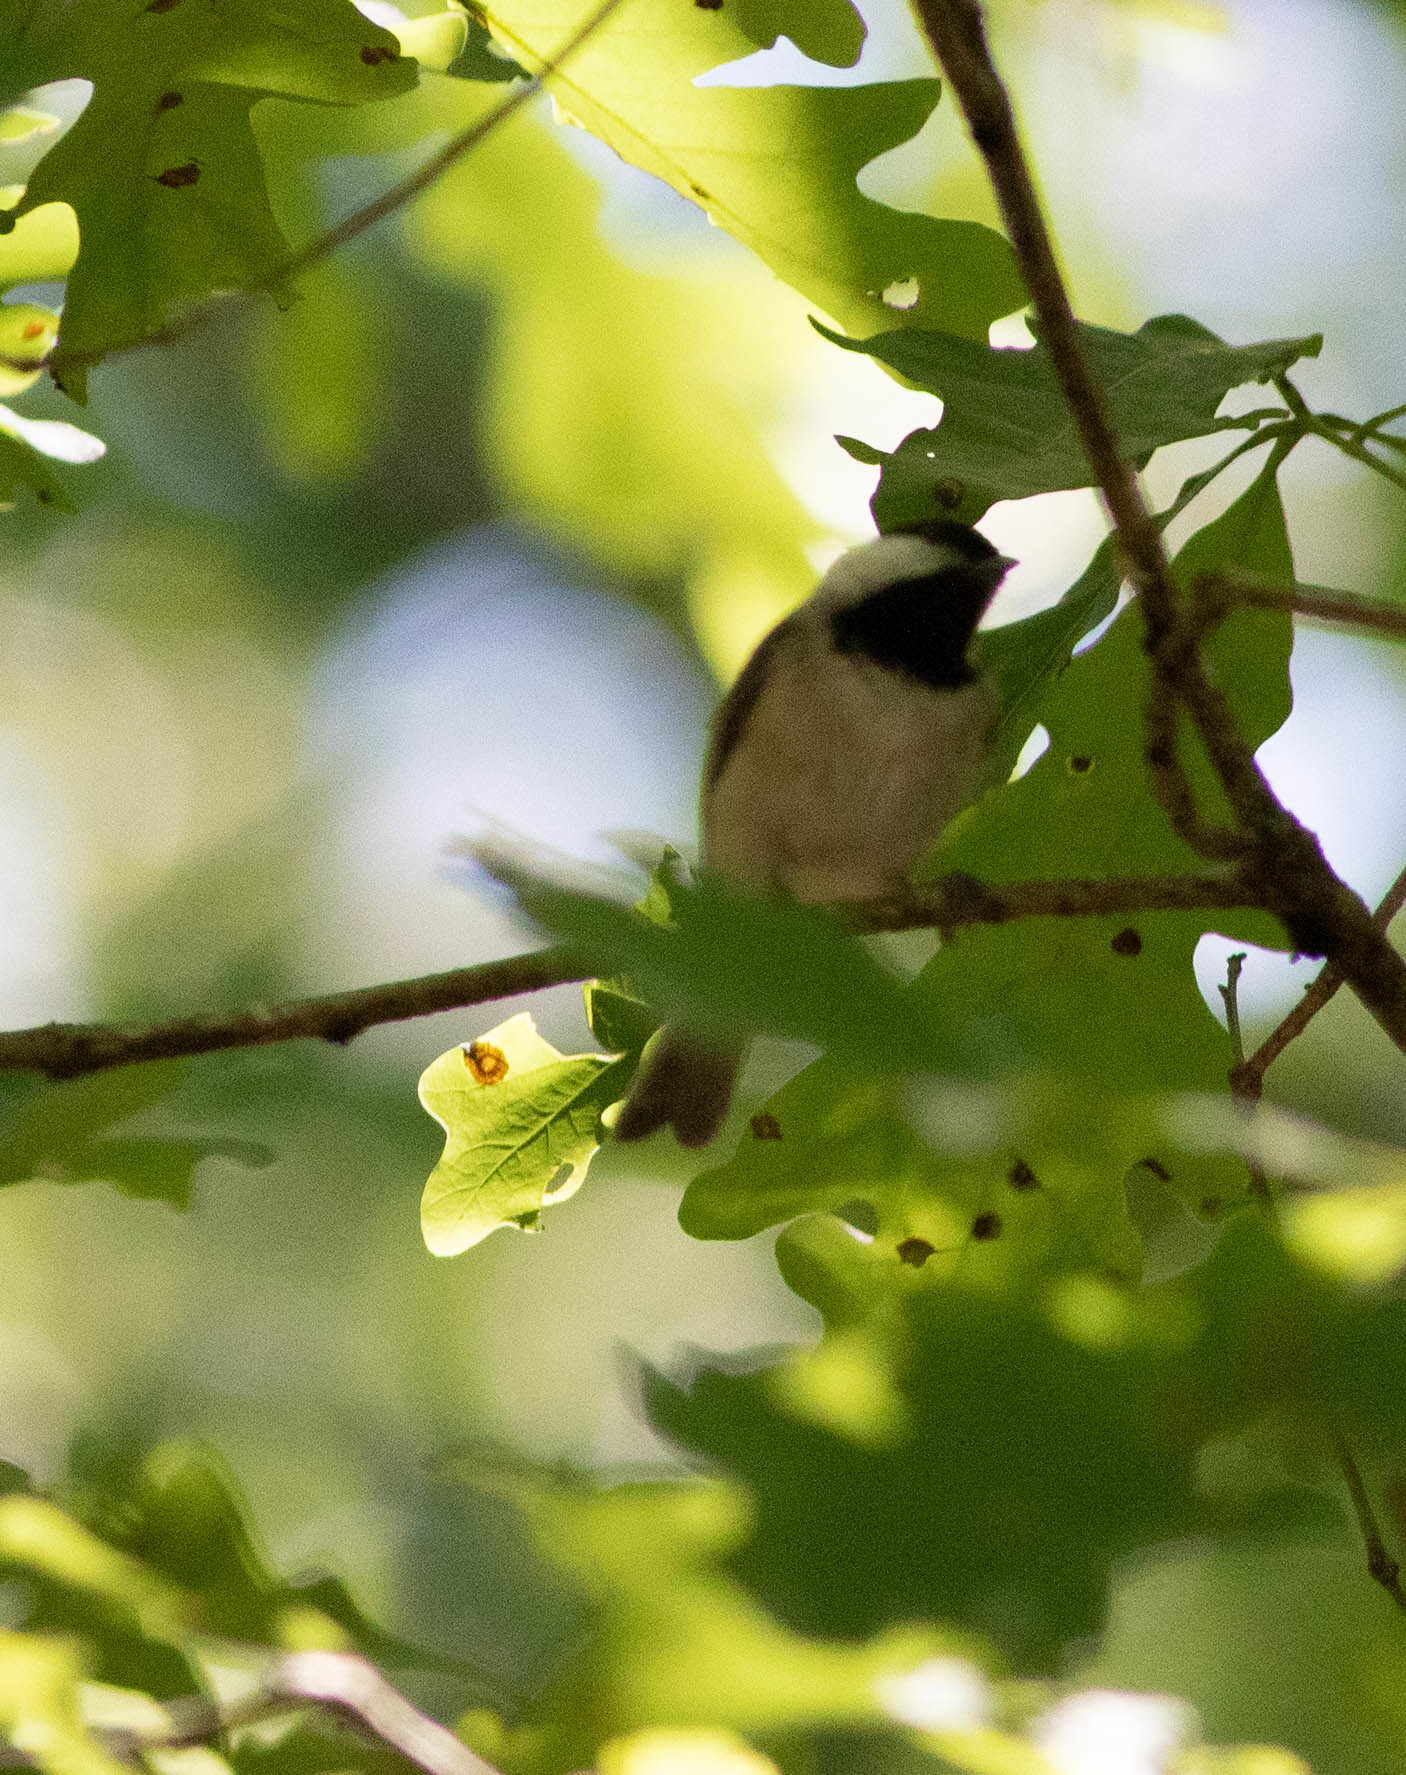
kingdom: Animalia
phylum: Chordata
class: Aves
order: Passeriformes
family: Paridae
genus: Poecile
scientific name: Poecile carolinensis
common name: Carolina chickadee
